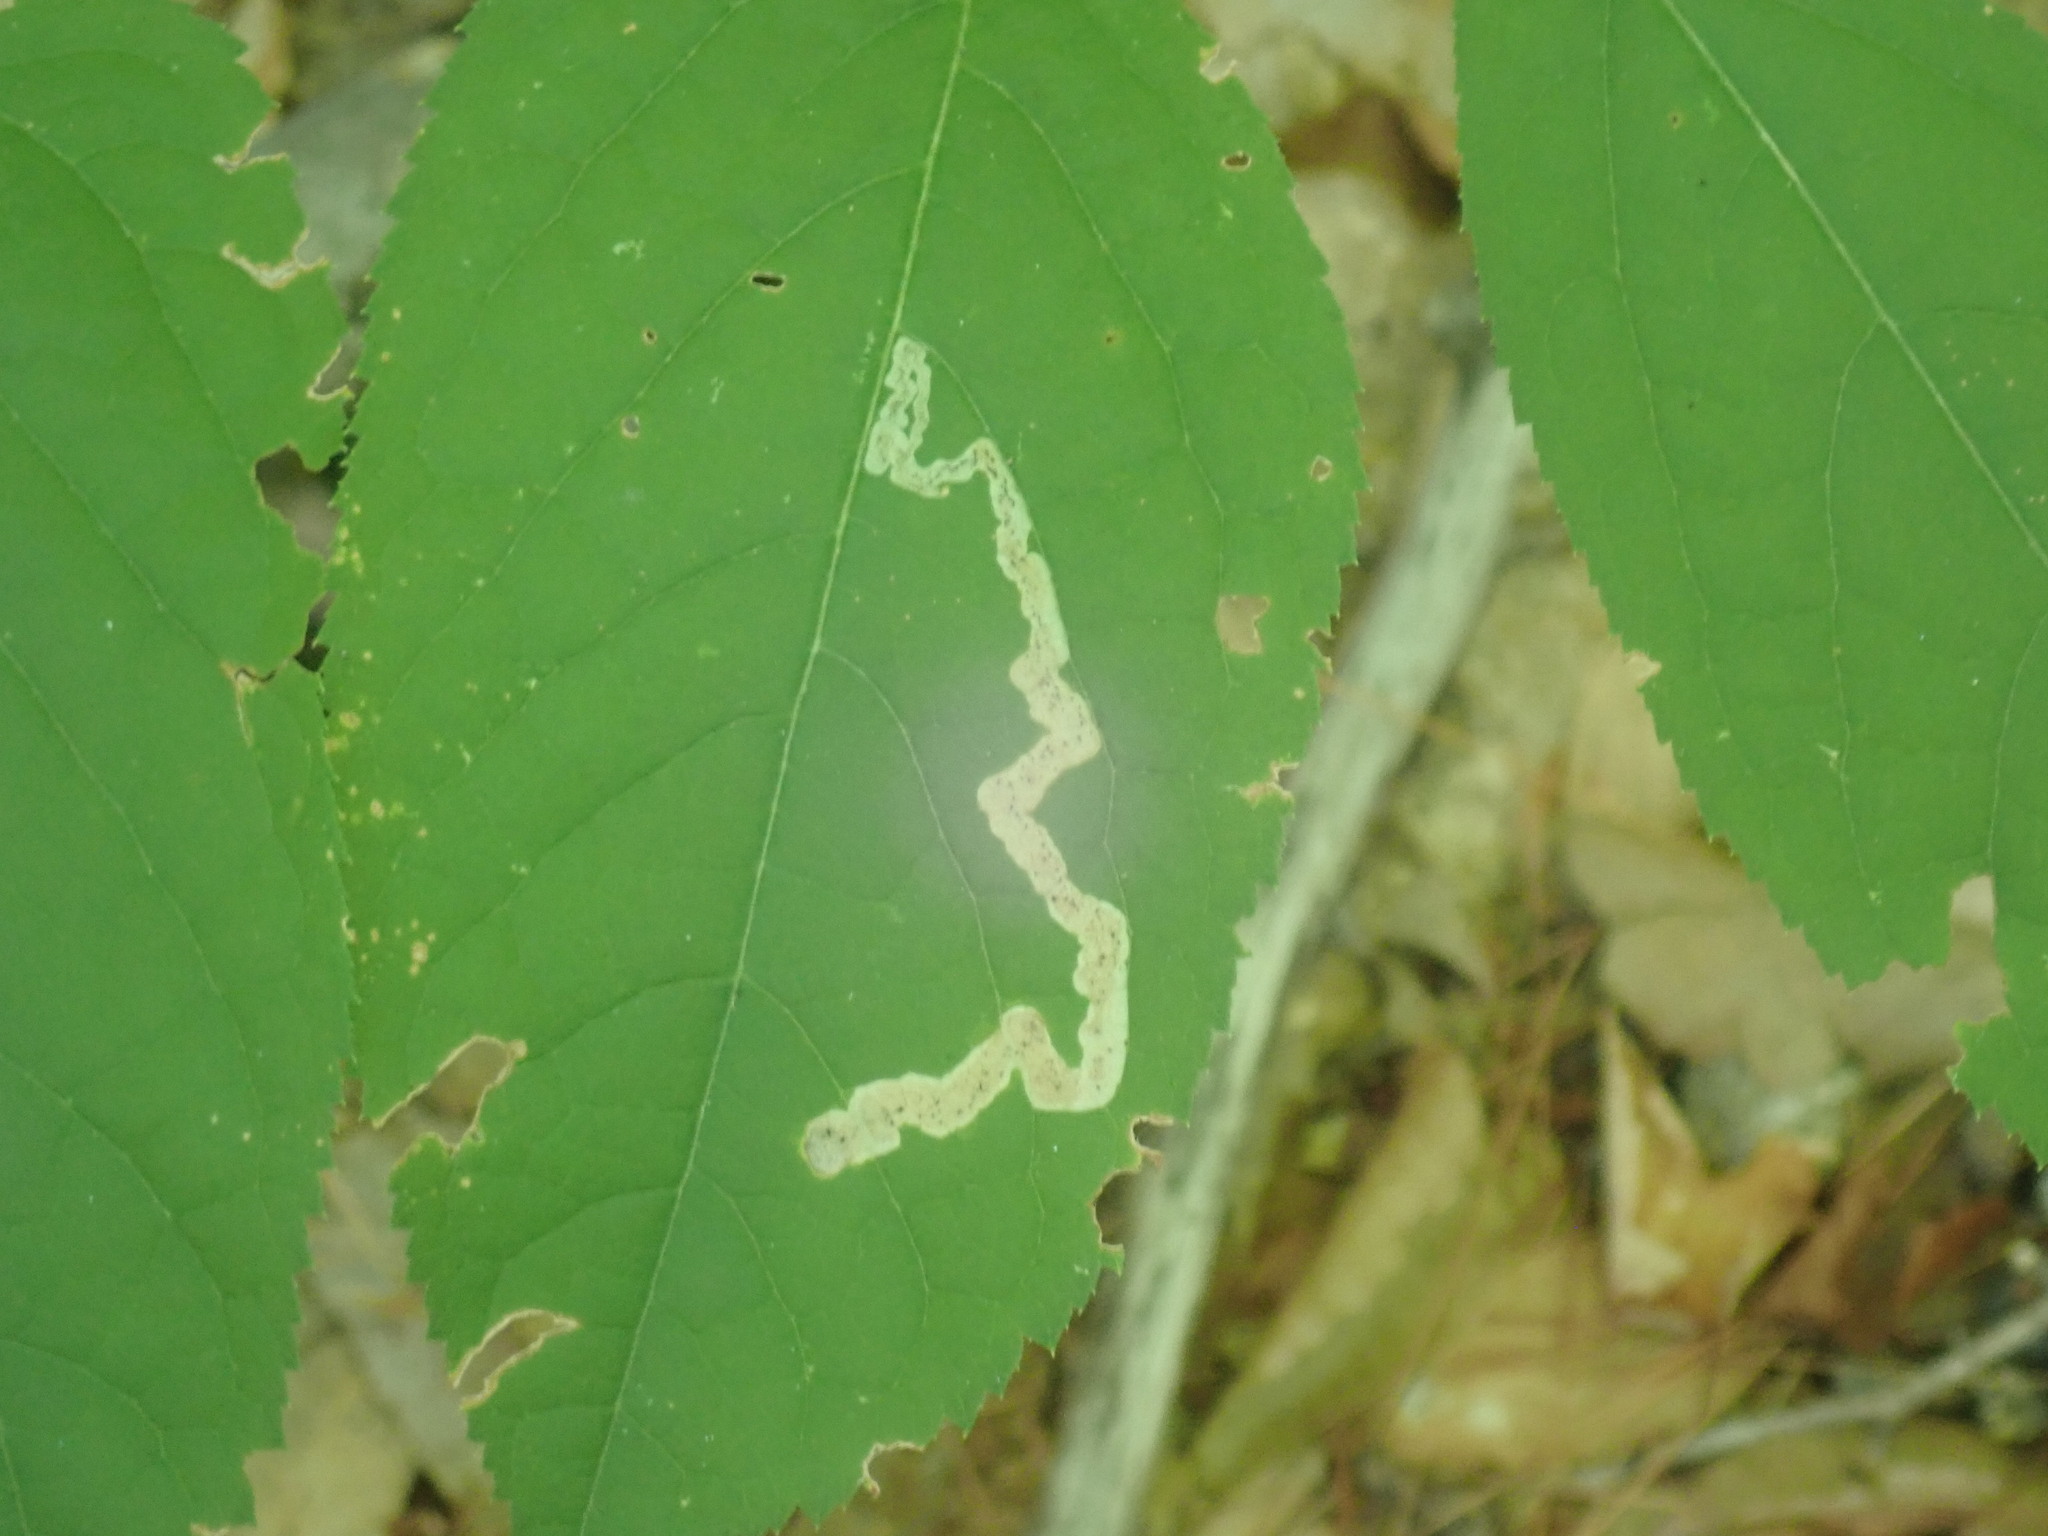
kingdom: Animalia
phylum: Arthropoda
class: Insecta
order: Diptera
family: Agromyzidae
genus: Phytomyza
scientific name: Phytomyza aralivora
